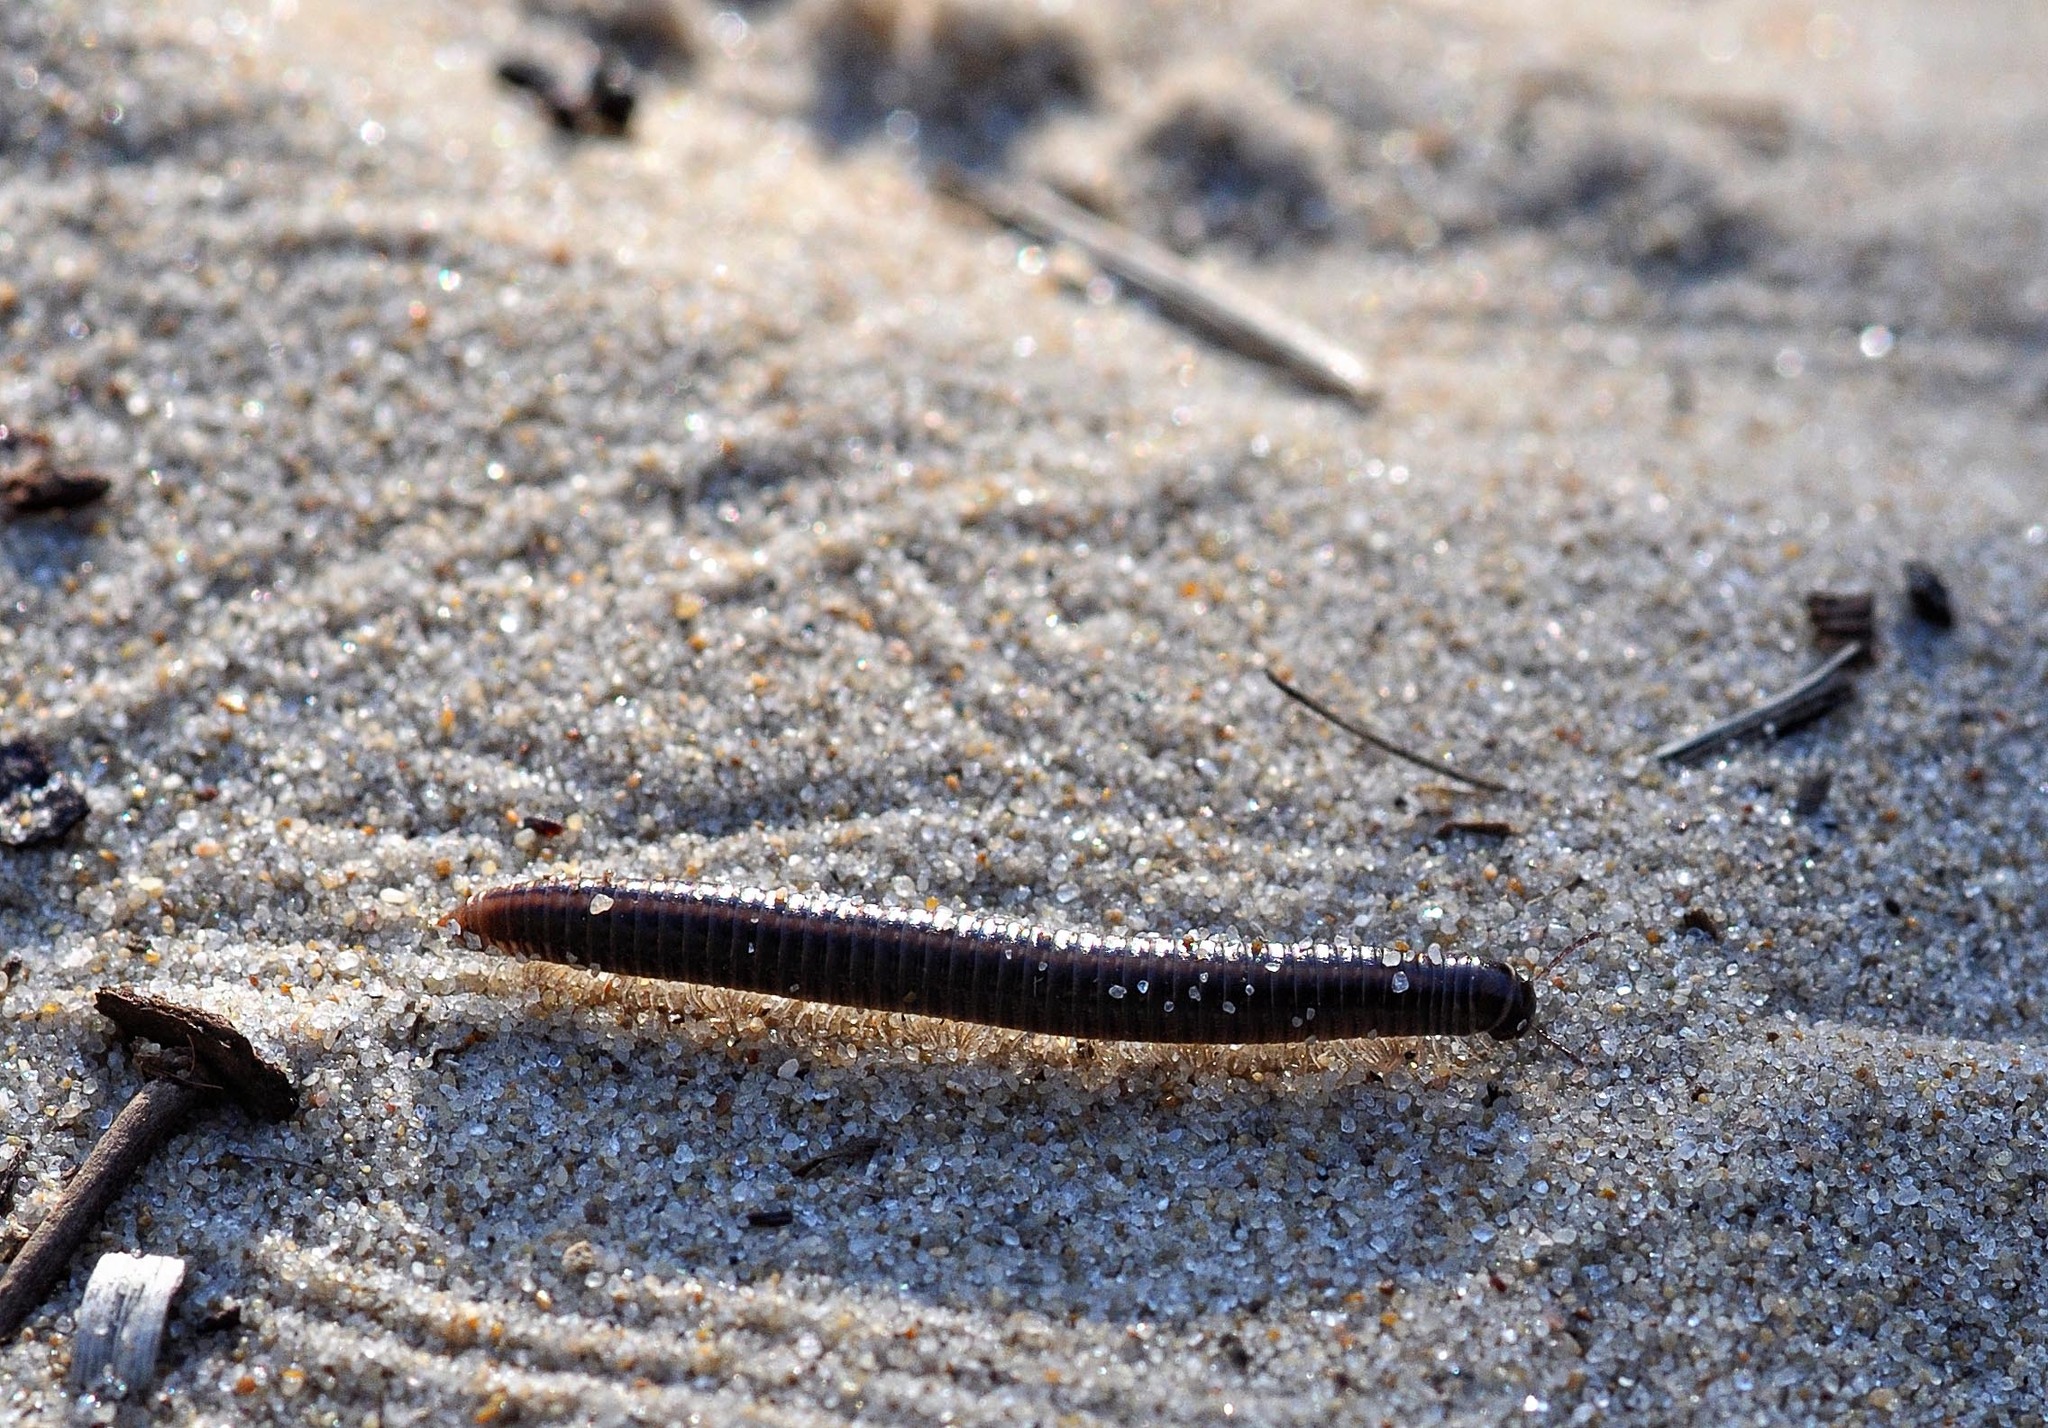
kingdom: Animalia
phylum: Arthropoda
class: Diplopoda
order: Julida
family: Julidae
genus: Ommatoiulus
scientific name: Ommatoiulus sabulosus
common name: Striped millipede
